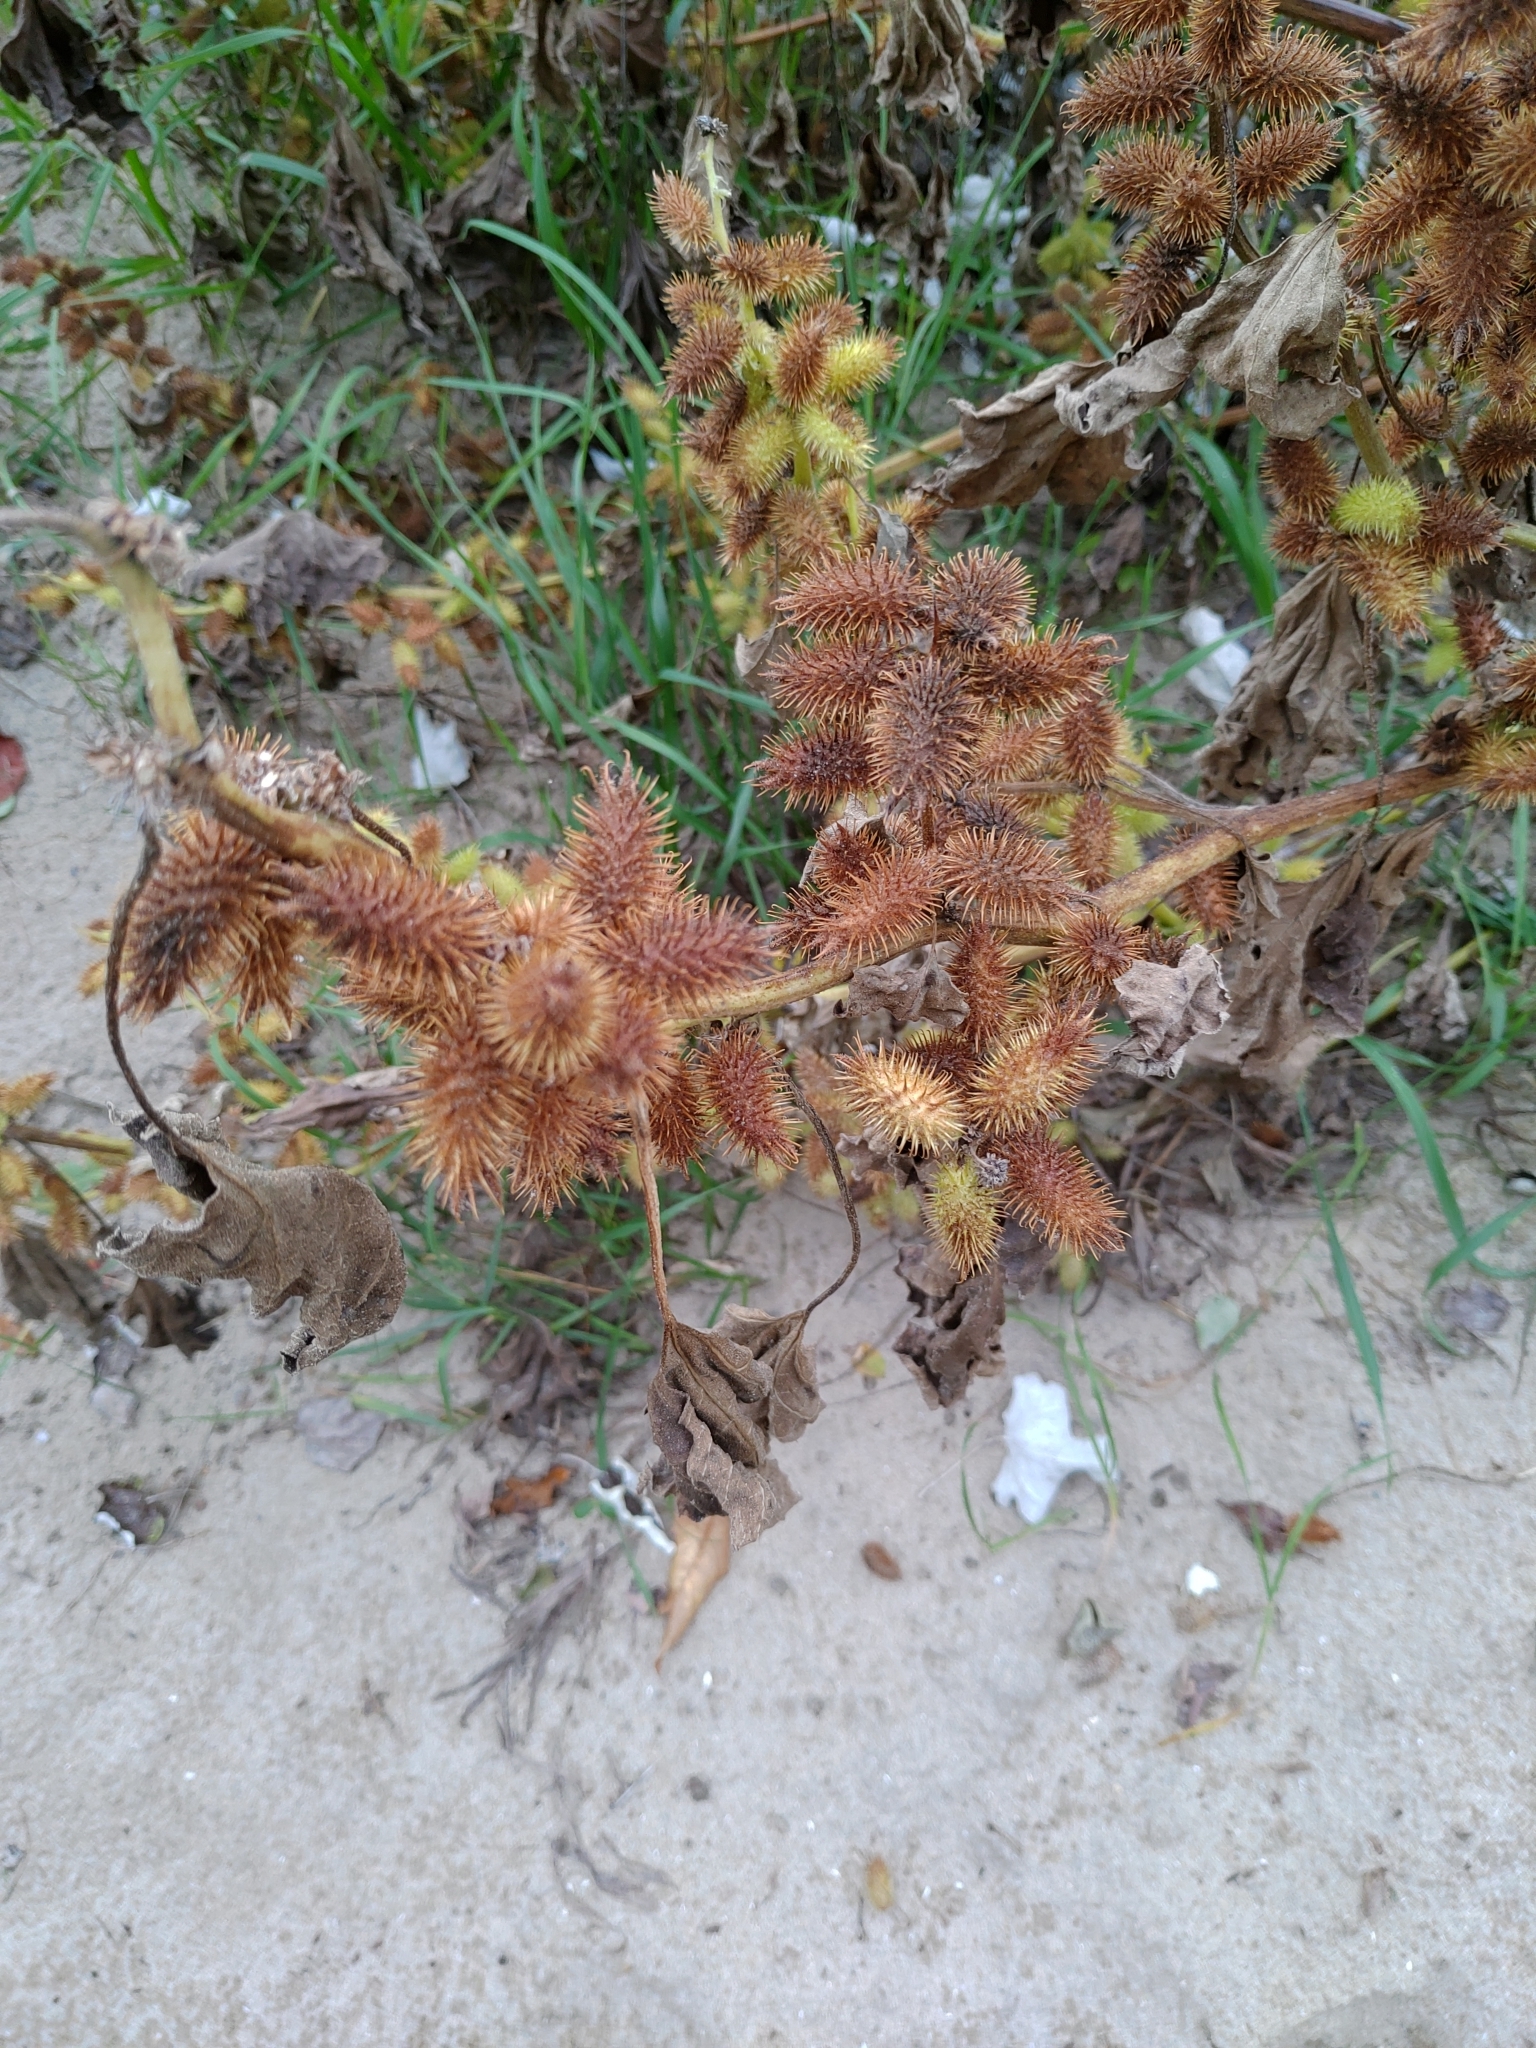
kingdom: Plantae
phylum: Tracheophyta
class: Magnoliopsida
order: Asterales
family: Asteraceae
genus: Xanthium
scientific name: Xanthium strumarium
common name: Rough cocklebur
